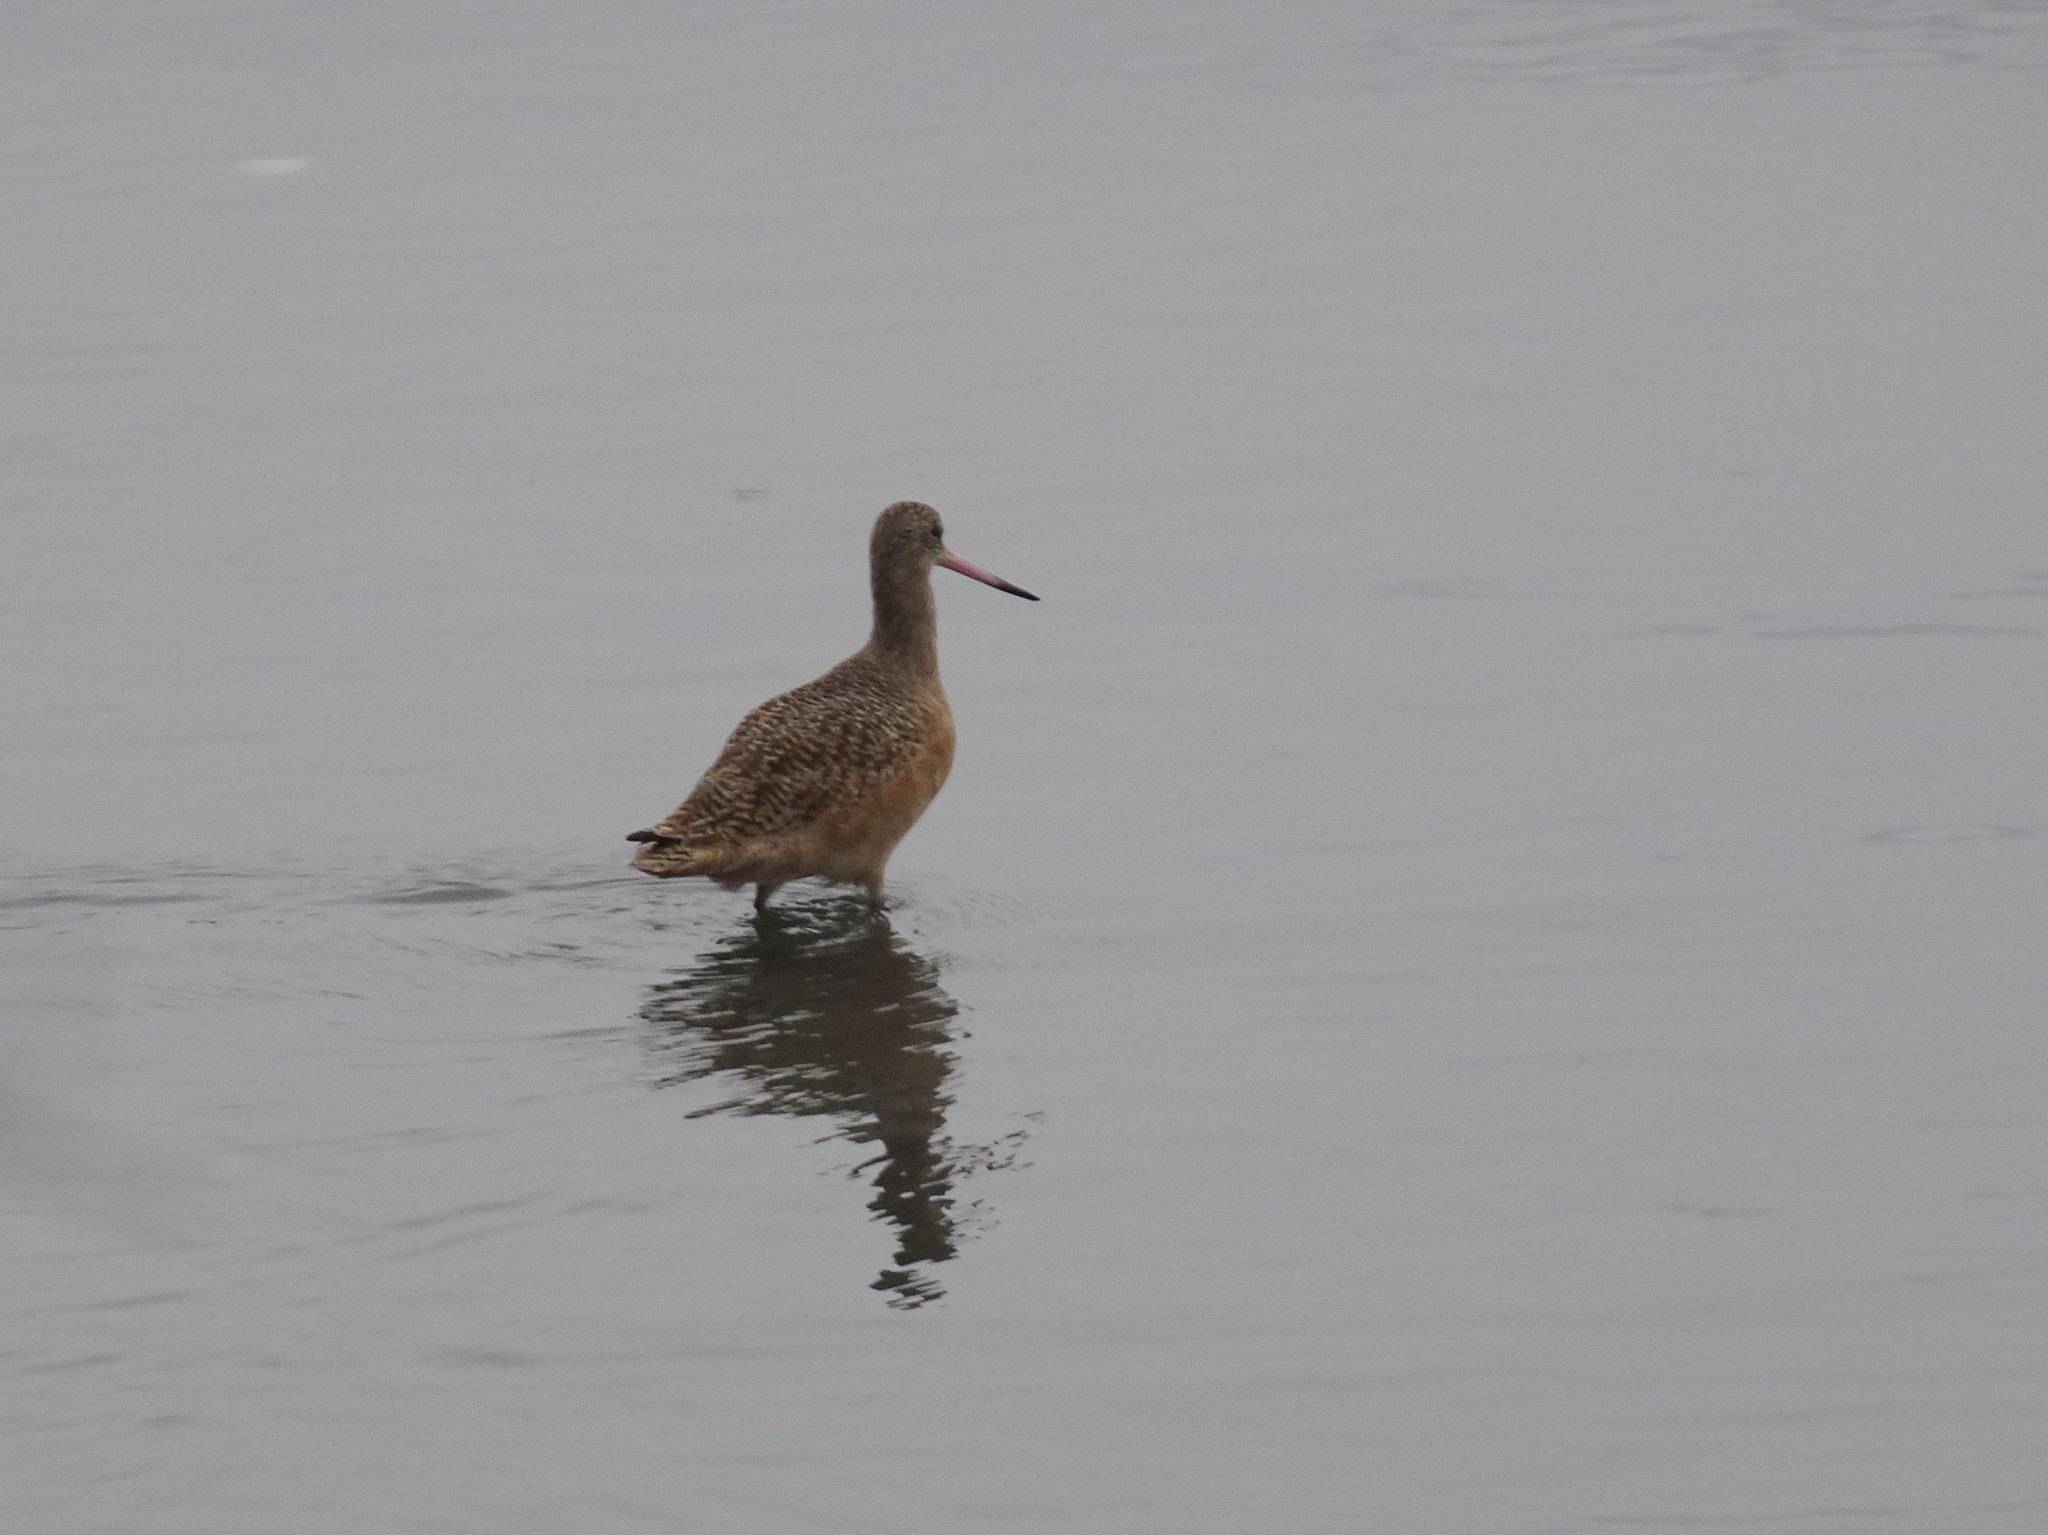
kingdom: Animalia
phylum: Chordata
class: Aves
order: Charadriiformes
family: Scolopacidae
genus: Limosa
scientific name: Limosa fedoa
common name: Marbled godwit
